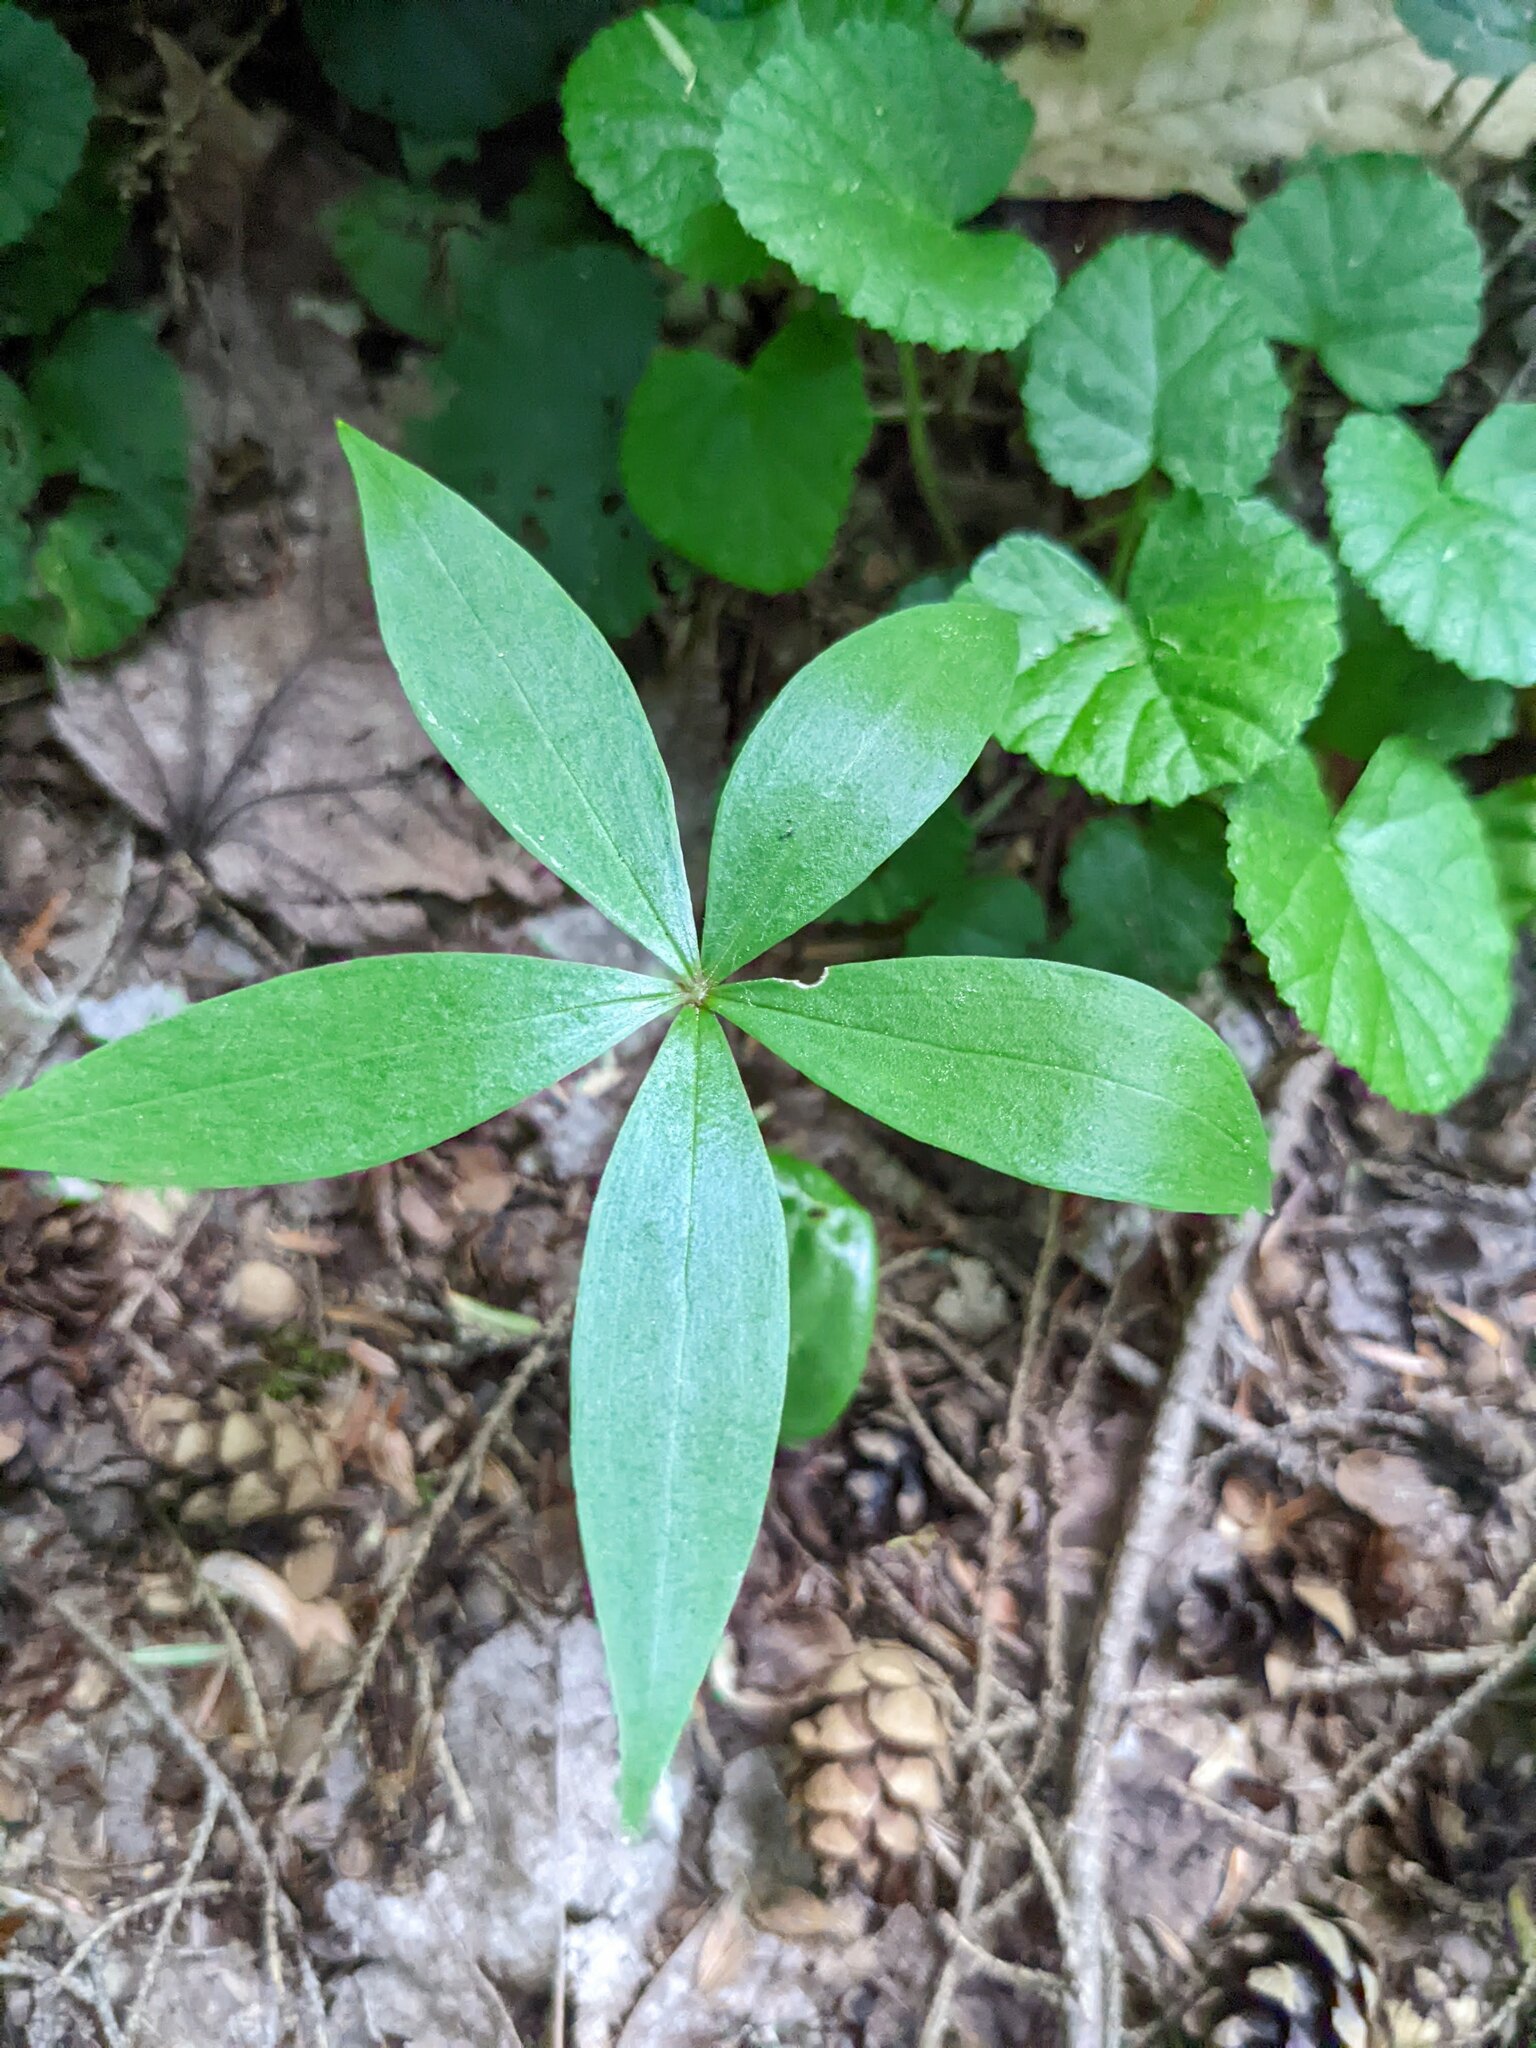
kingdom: Plantae
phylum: Tracheophyta
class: Liliopsida
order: Liliales
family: Liliaceae
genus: Medeola
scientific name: Medeola virginiana
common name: Indian cucumber-root
